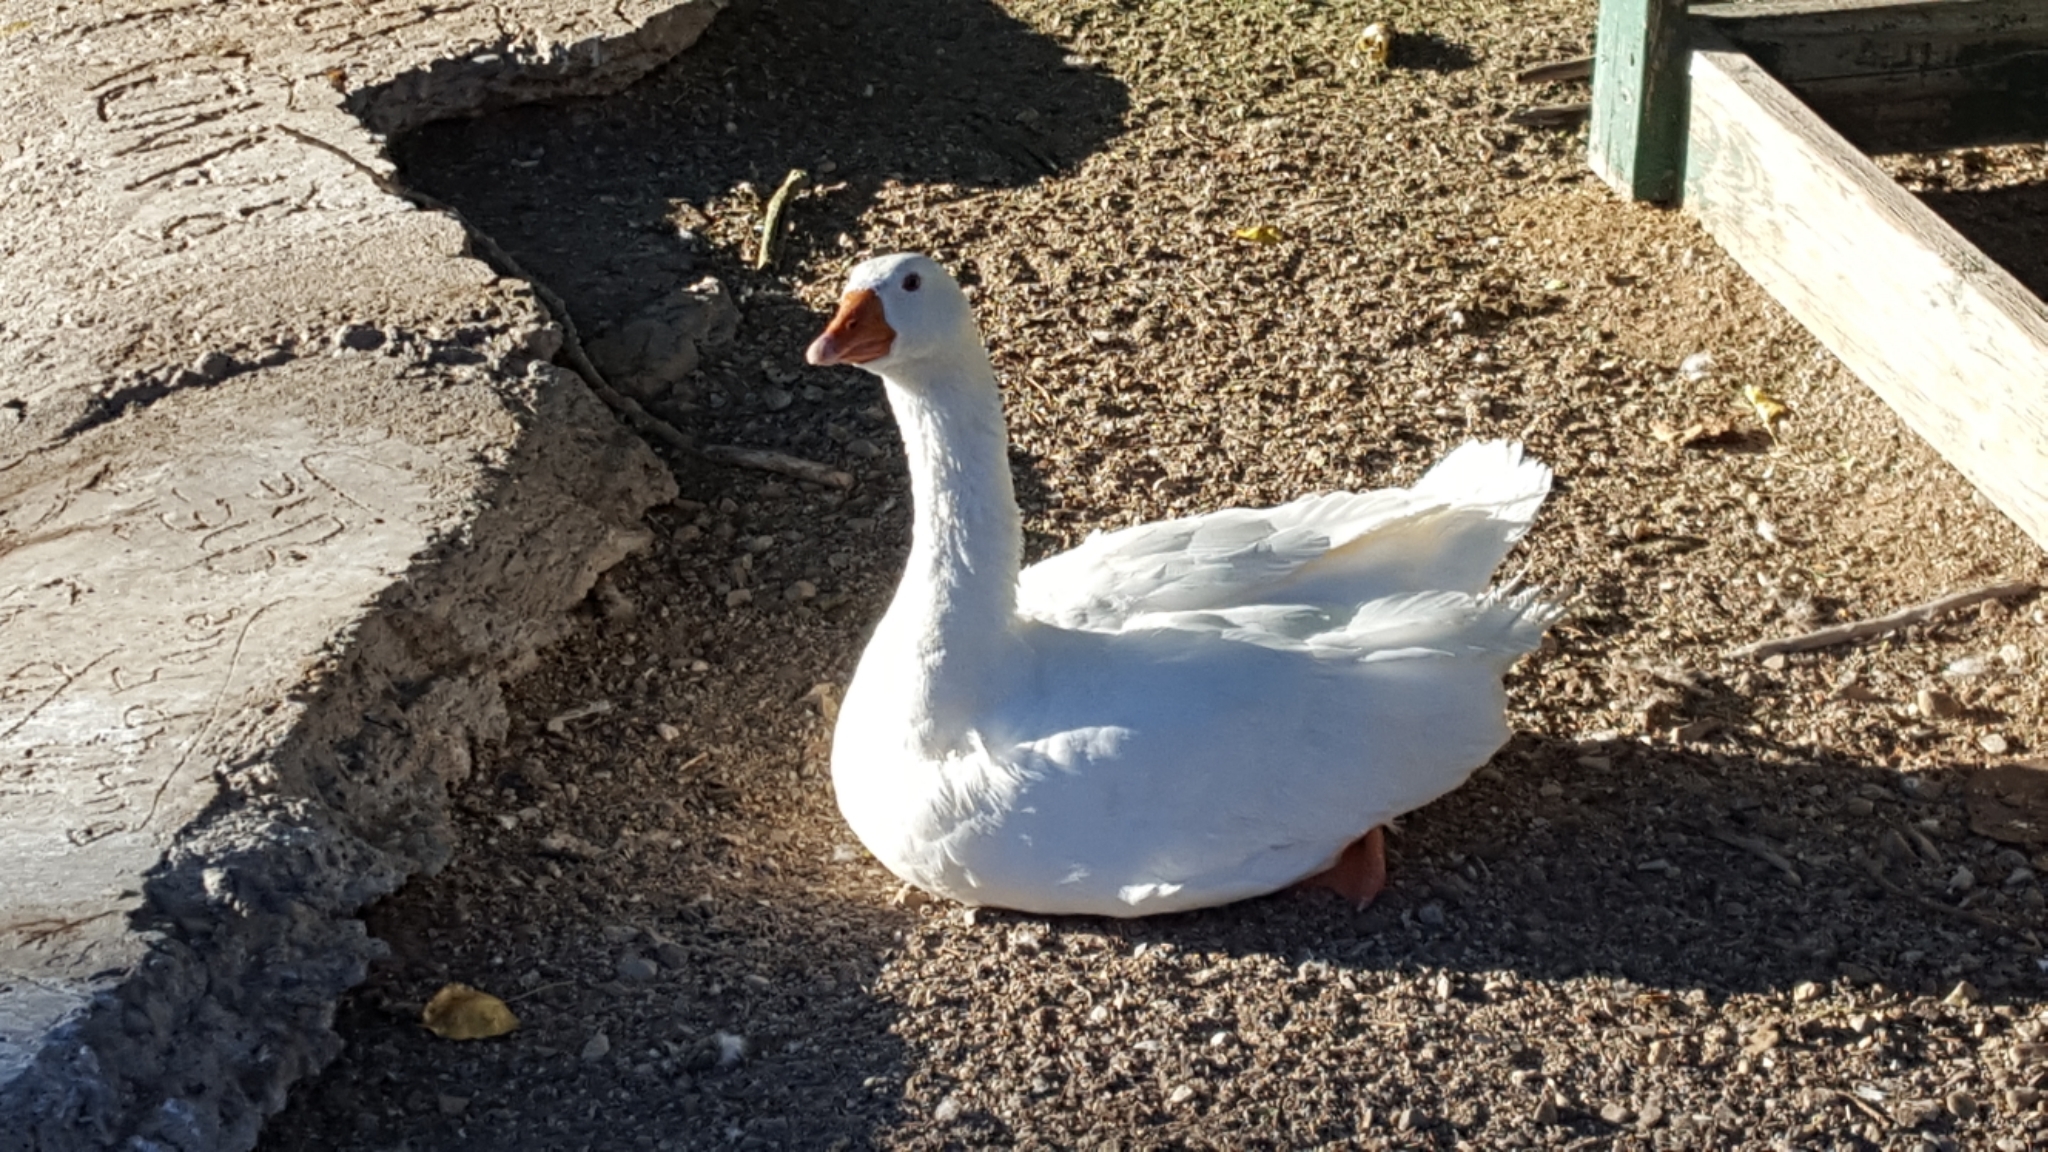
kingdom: Animalia
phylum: Chordata
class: Aves
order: Anseriformes
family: Anatidae
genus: Anser
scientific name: Anser anser
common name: Greylag goose
